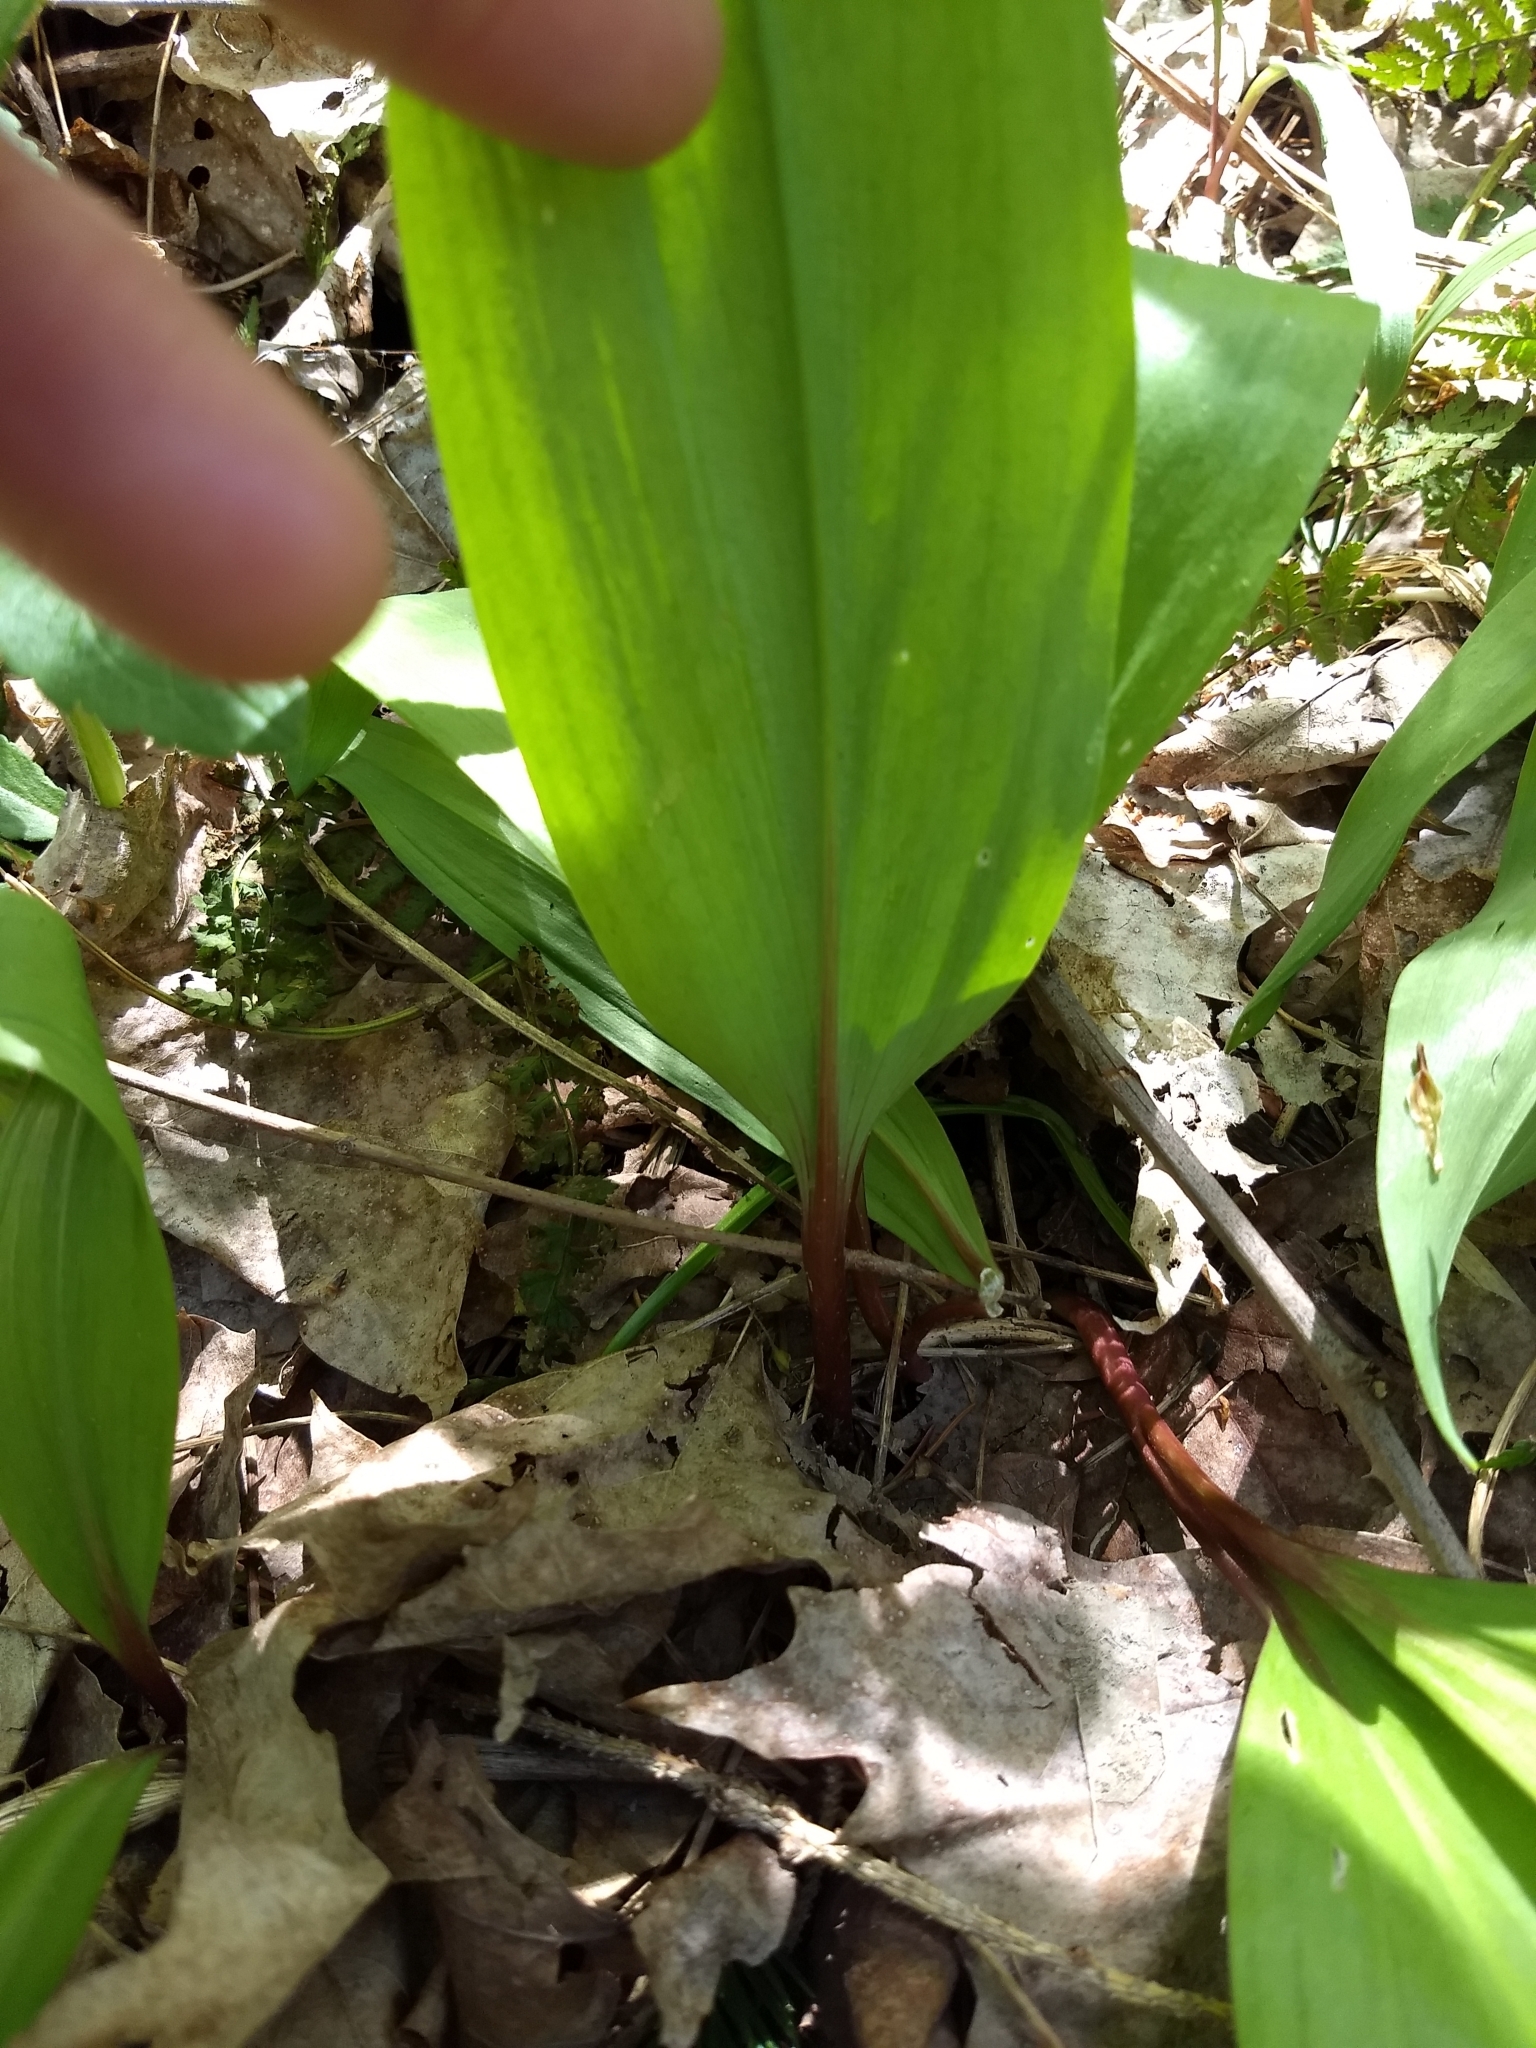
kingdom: Plantae
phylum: Tracheophyta
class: Liliopsida
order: Asparagales
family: Amaryllidaceae
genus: Allium
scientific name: Allium tricoccum
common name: Ramp
